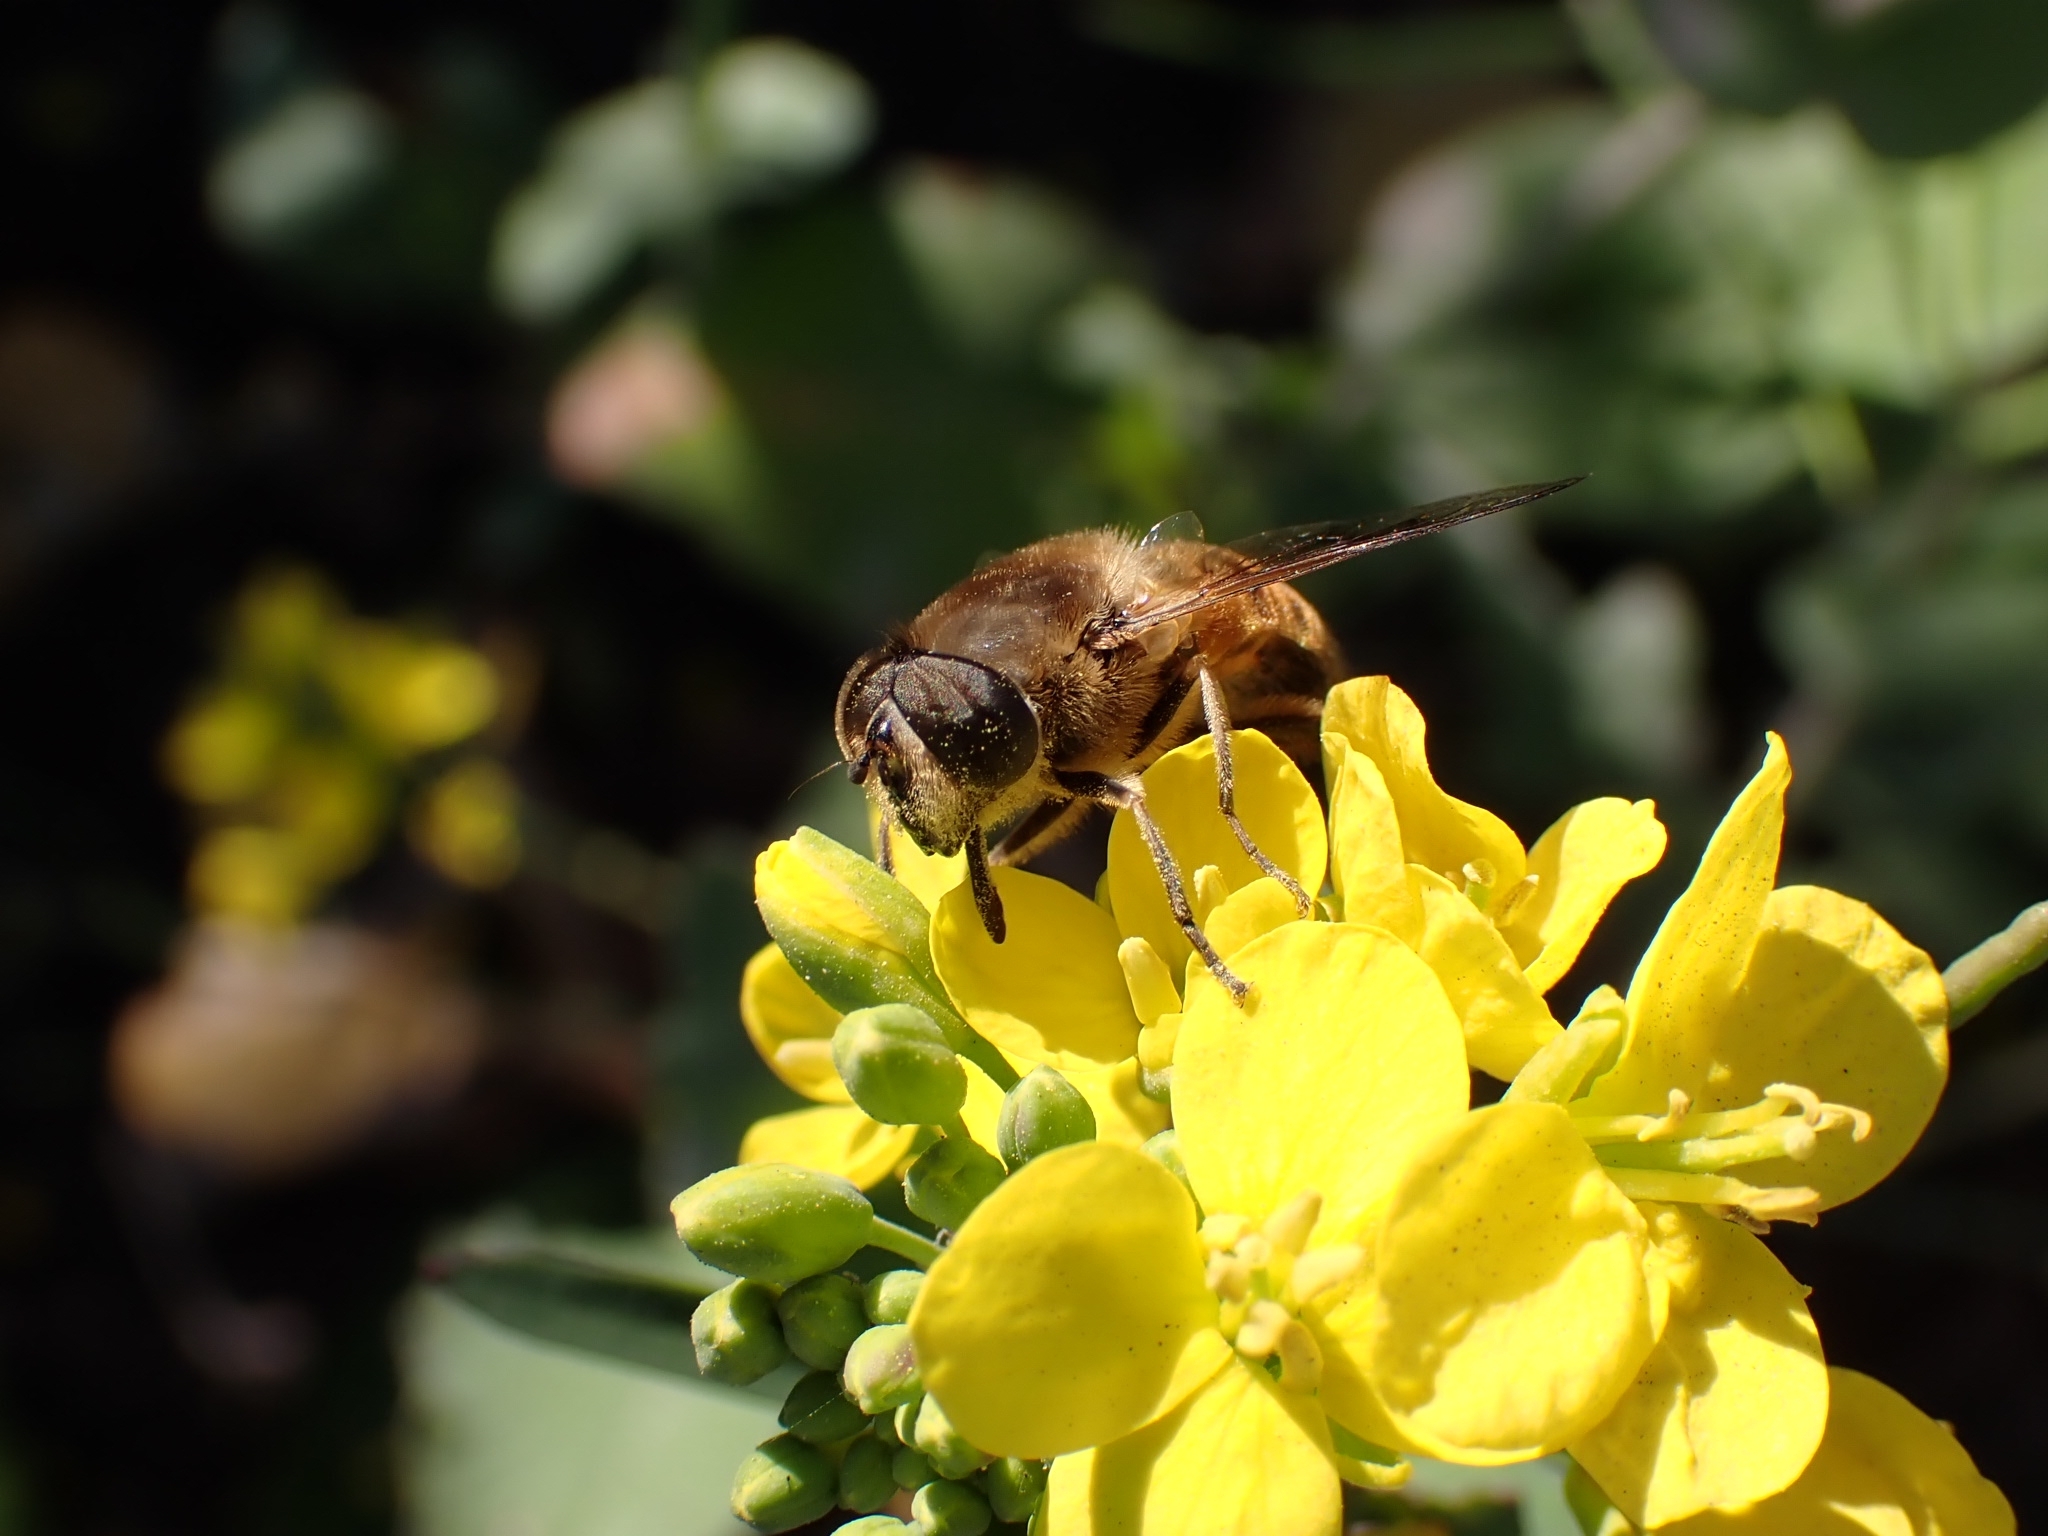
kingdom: Animalia
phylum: Arthropoda
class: Insecta
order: Diptera
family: Syrphidae
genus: Eristalis
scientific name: Eristalis tenax
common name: Drone fly
